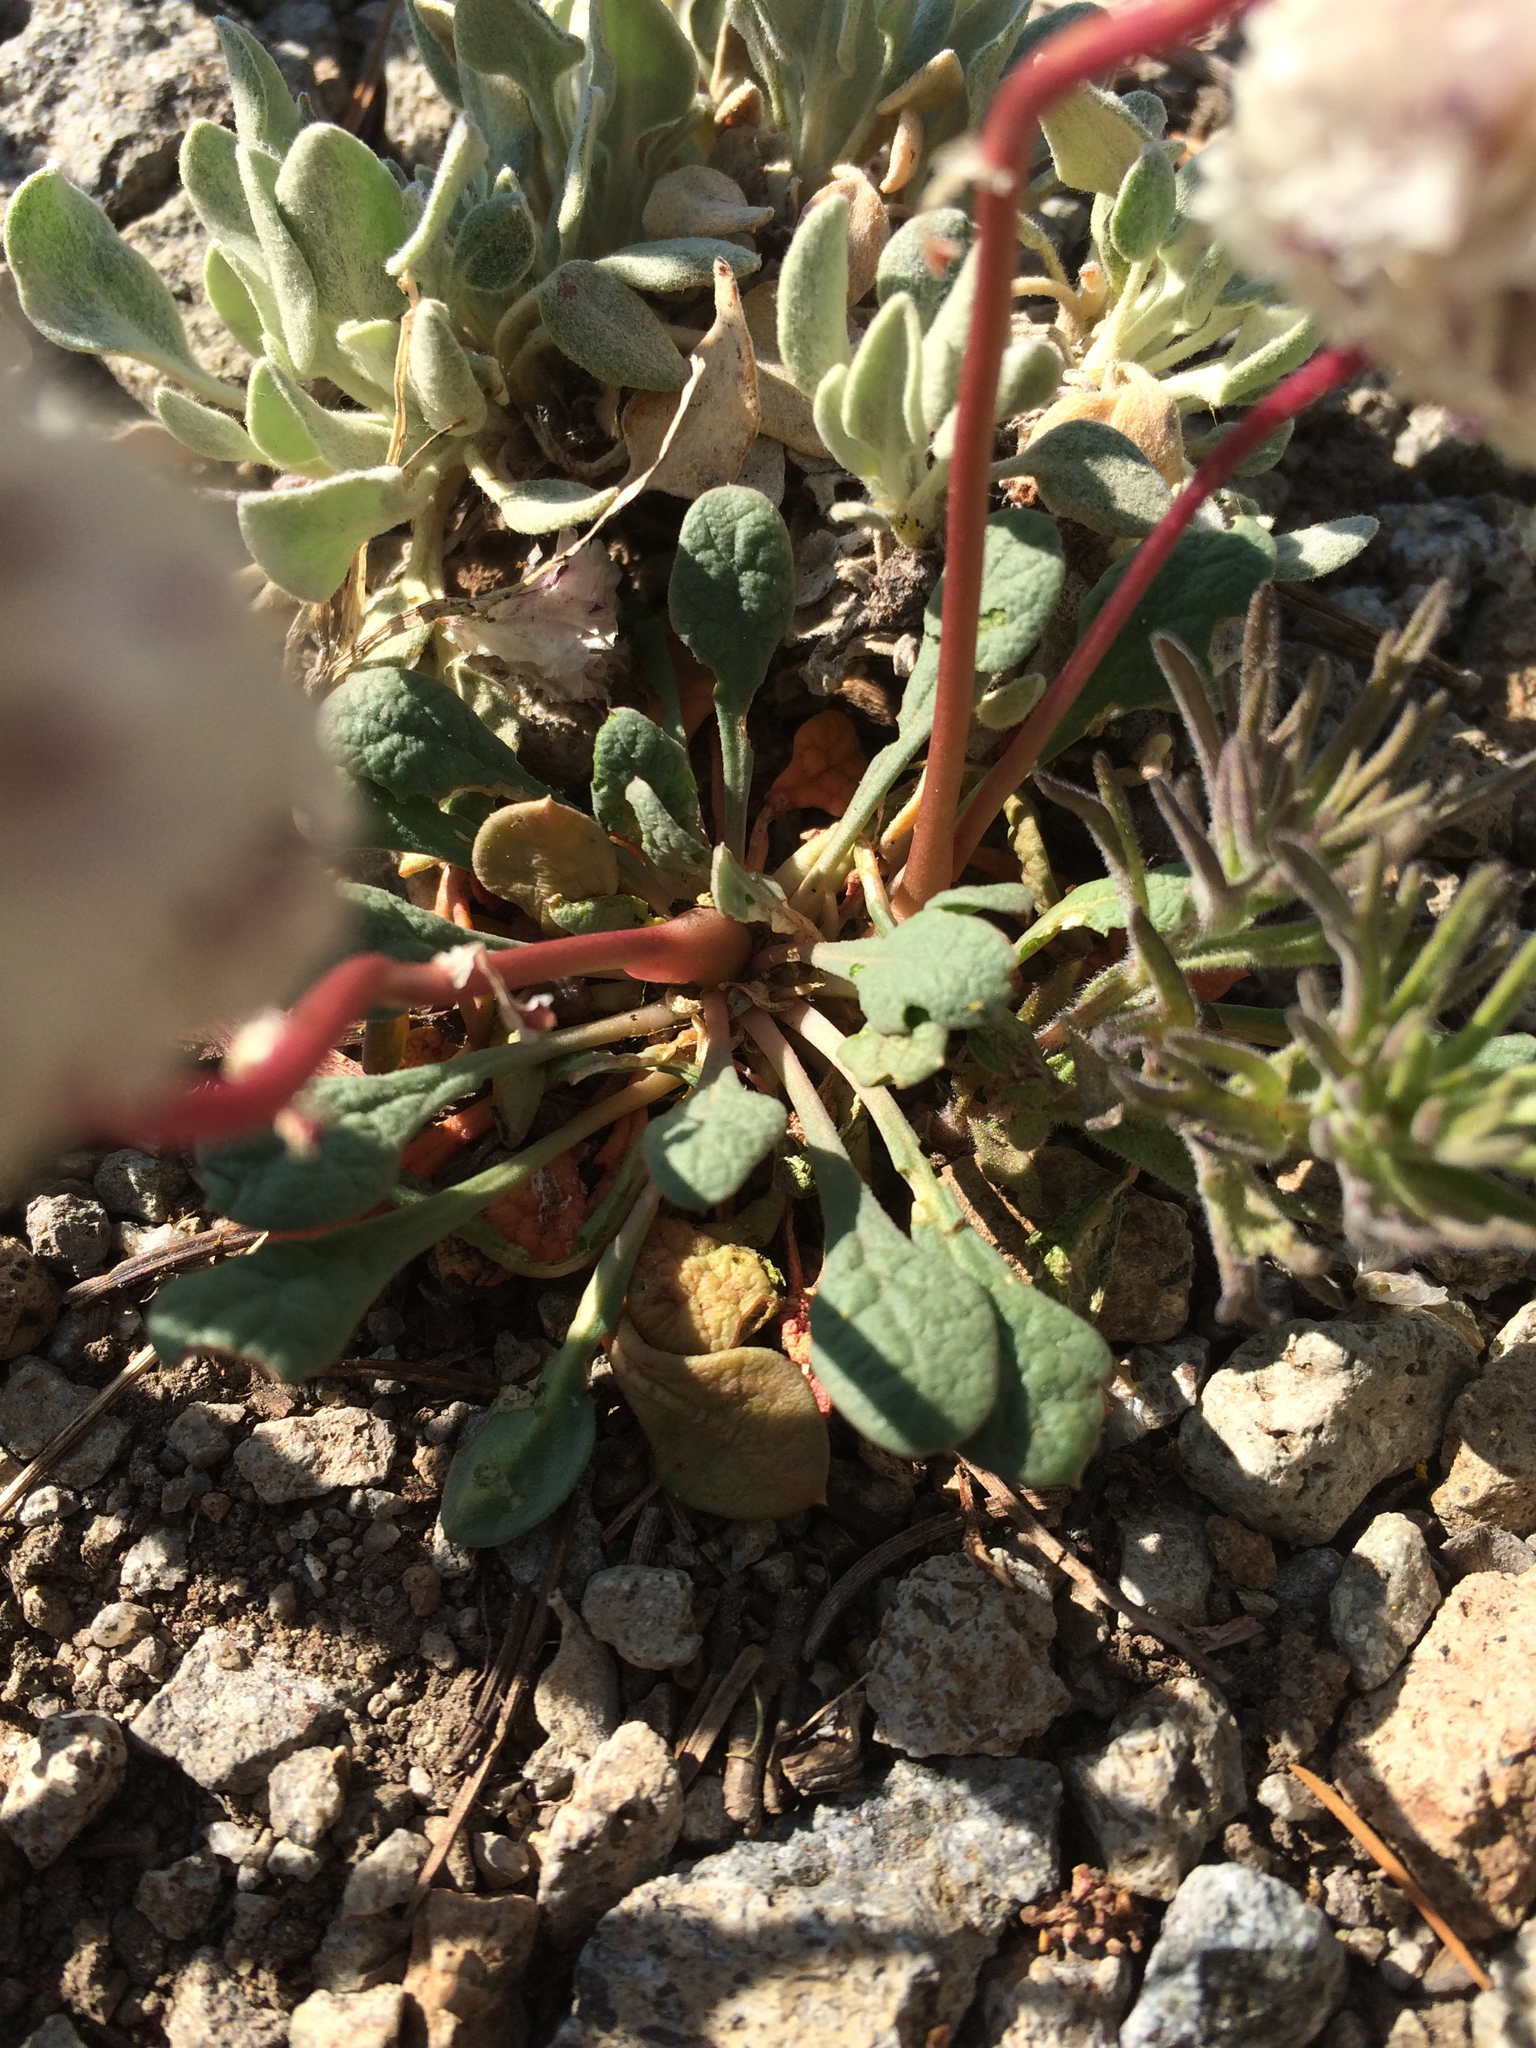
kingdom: Plantae
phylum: Tracheophyta
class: Magnoliopsida
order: Caryophyllales
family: Montiaceae
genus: Calyptridium
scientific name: Calyptridium monospermum
